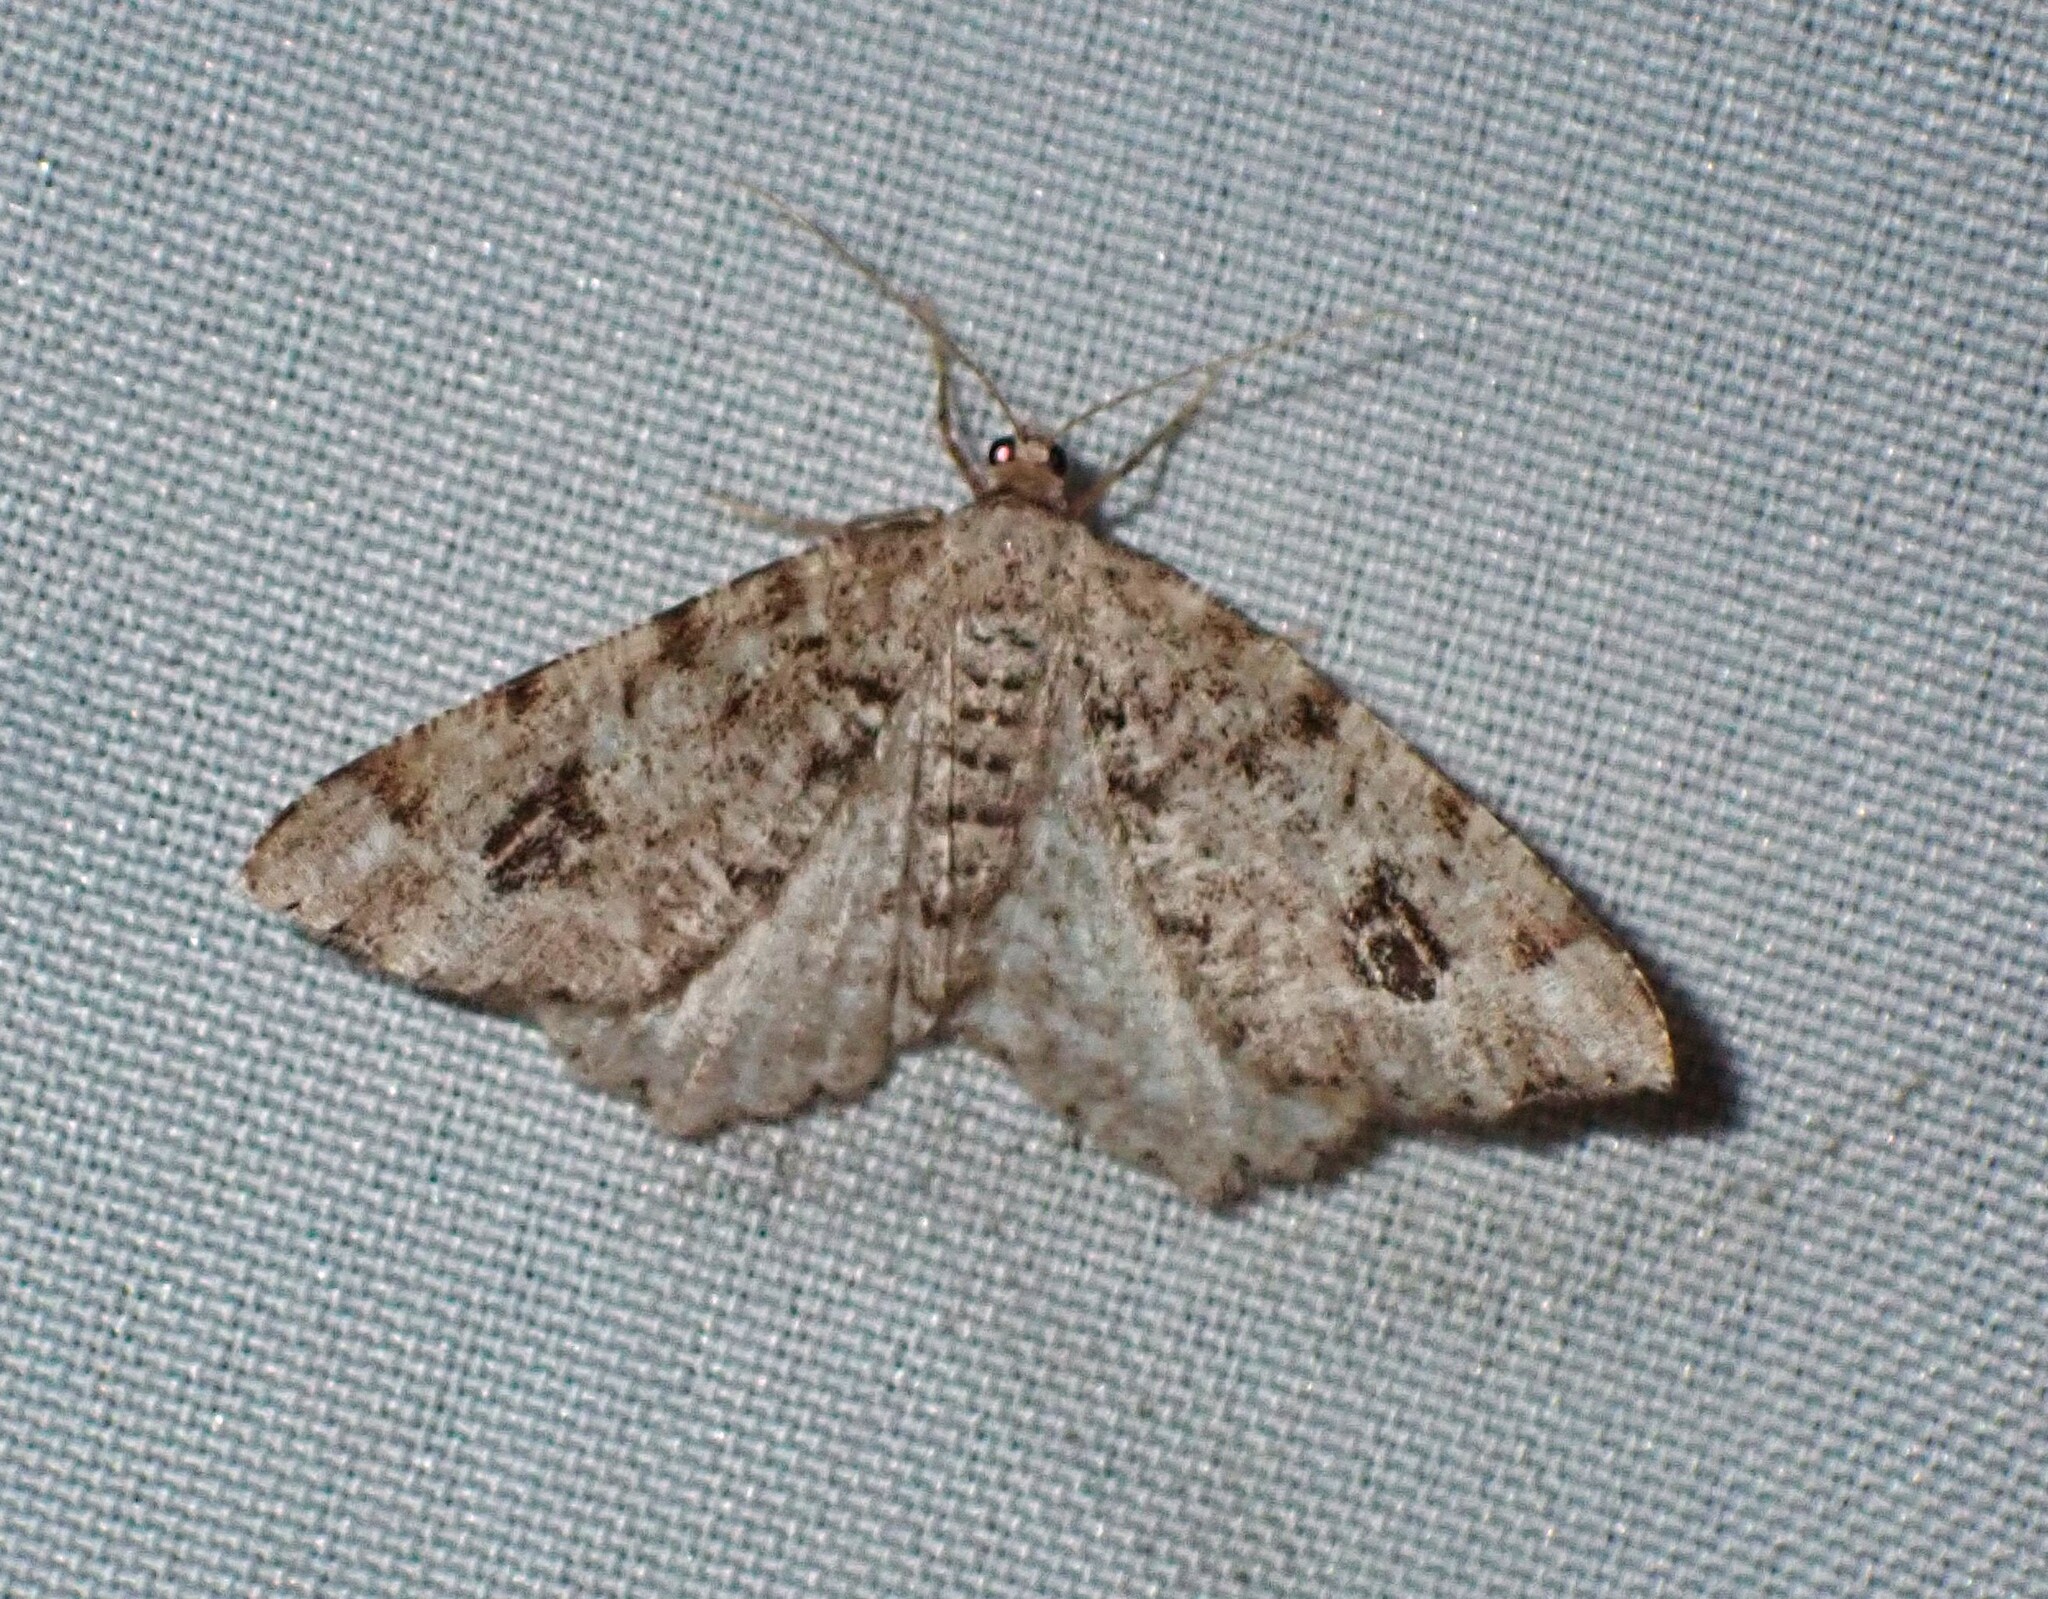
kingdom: Animalia
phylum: Arthropoda
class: Insecta
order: Lepidoptera
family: Geometridae
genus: Macaria
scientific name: Macaria signaria
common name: Dusky peacock
